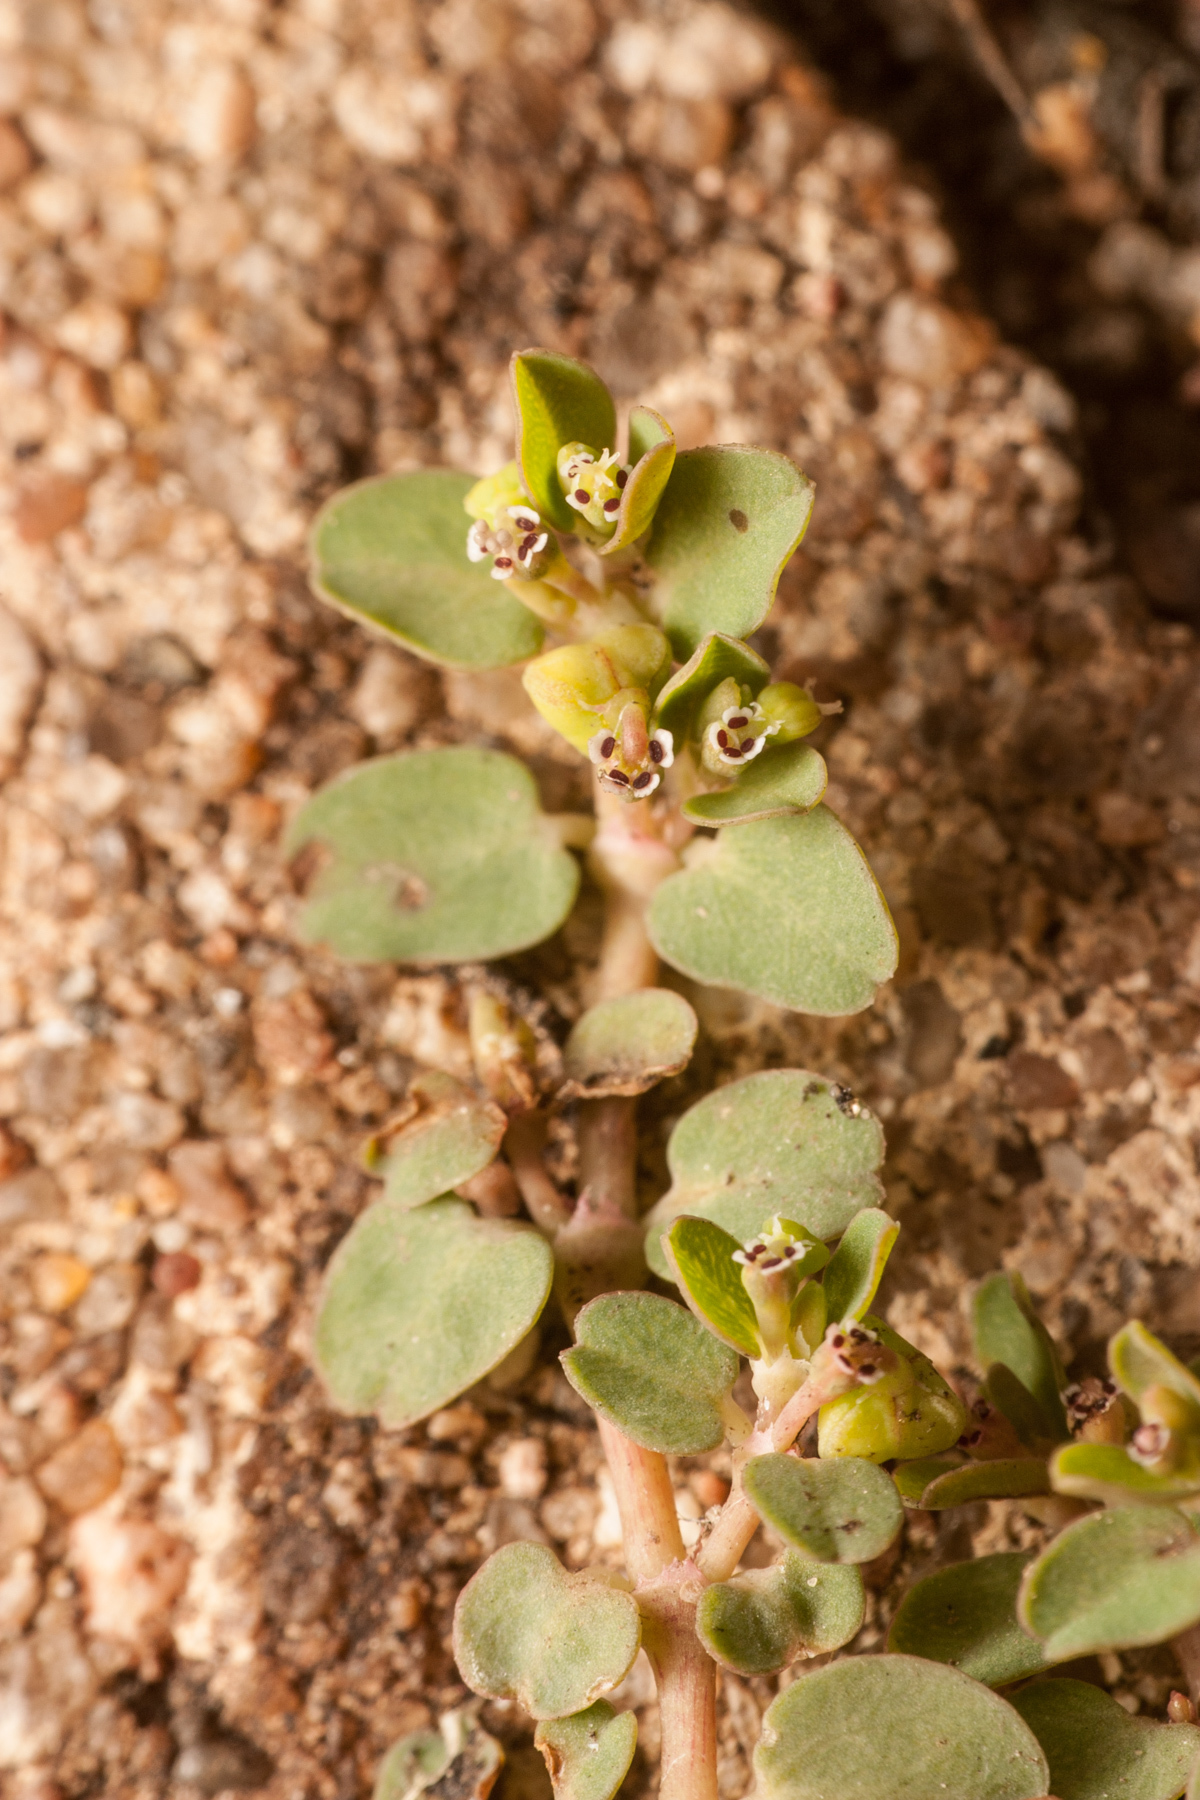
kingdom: Plantae
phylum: Tracheophyta
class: Magnoliopsida
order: Malpighiales
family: Euphorbiaceae
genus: Euphorbia
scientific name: Euphorbia serpens
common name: Matted sandmat
